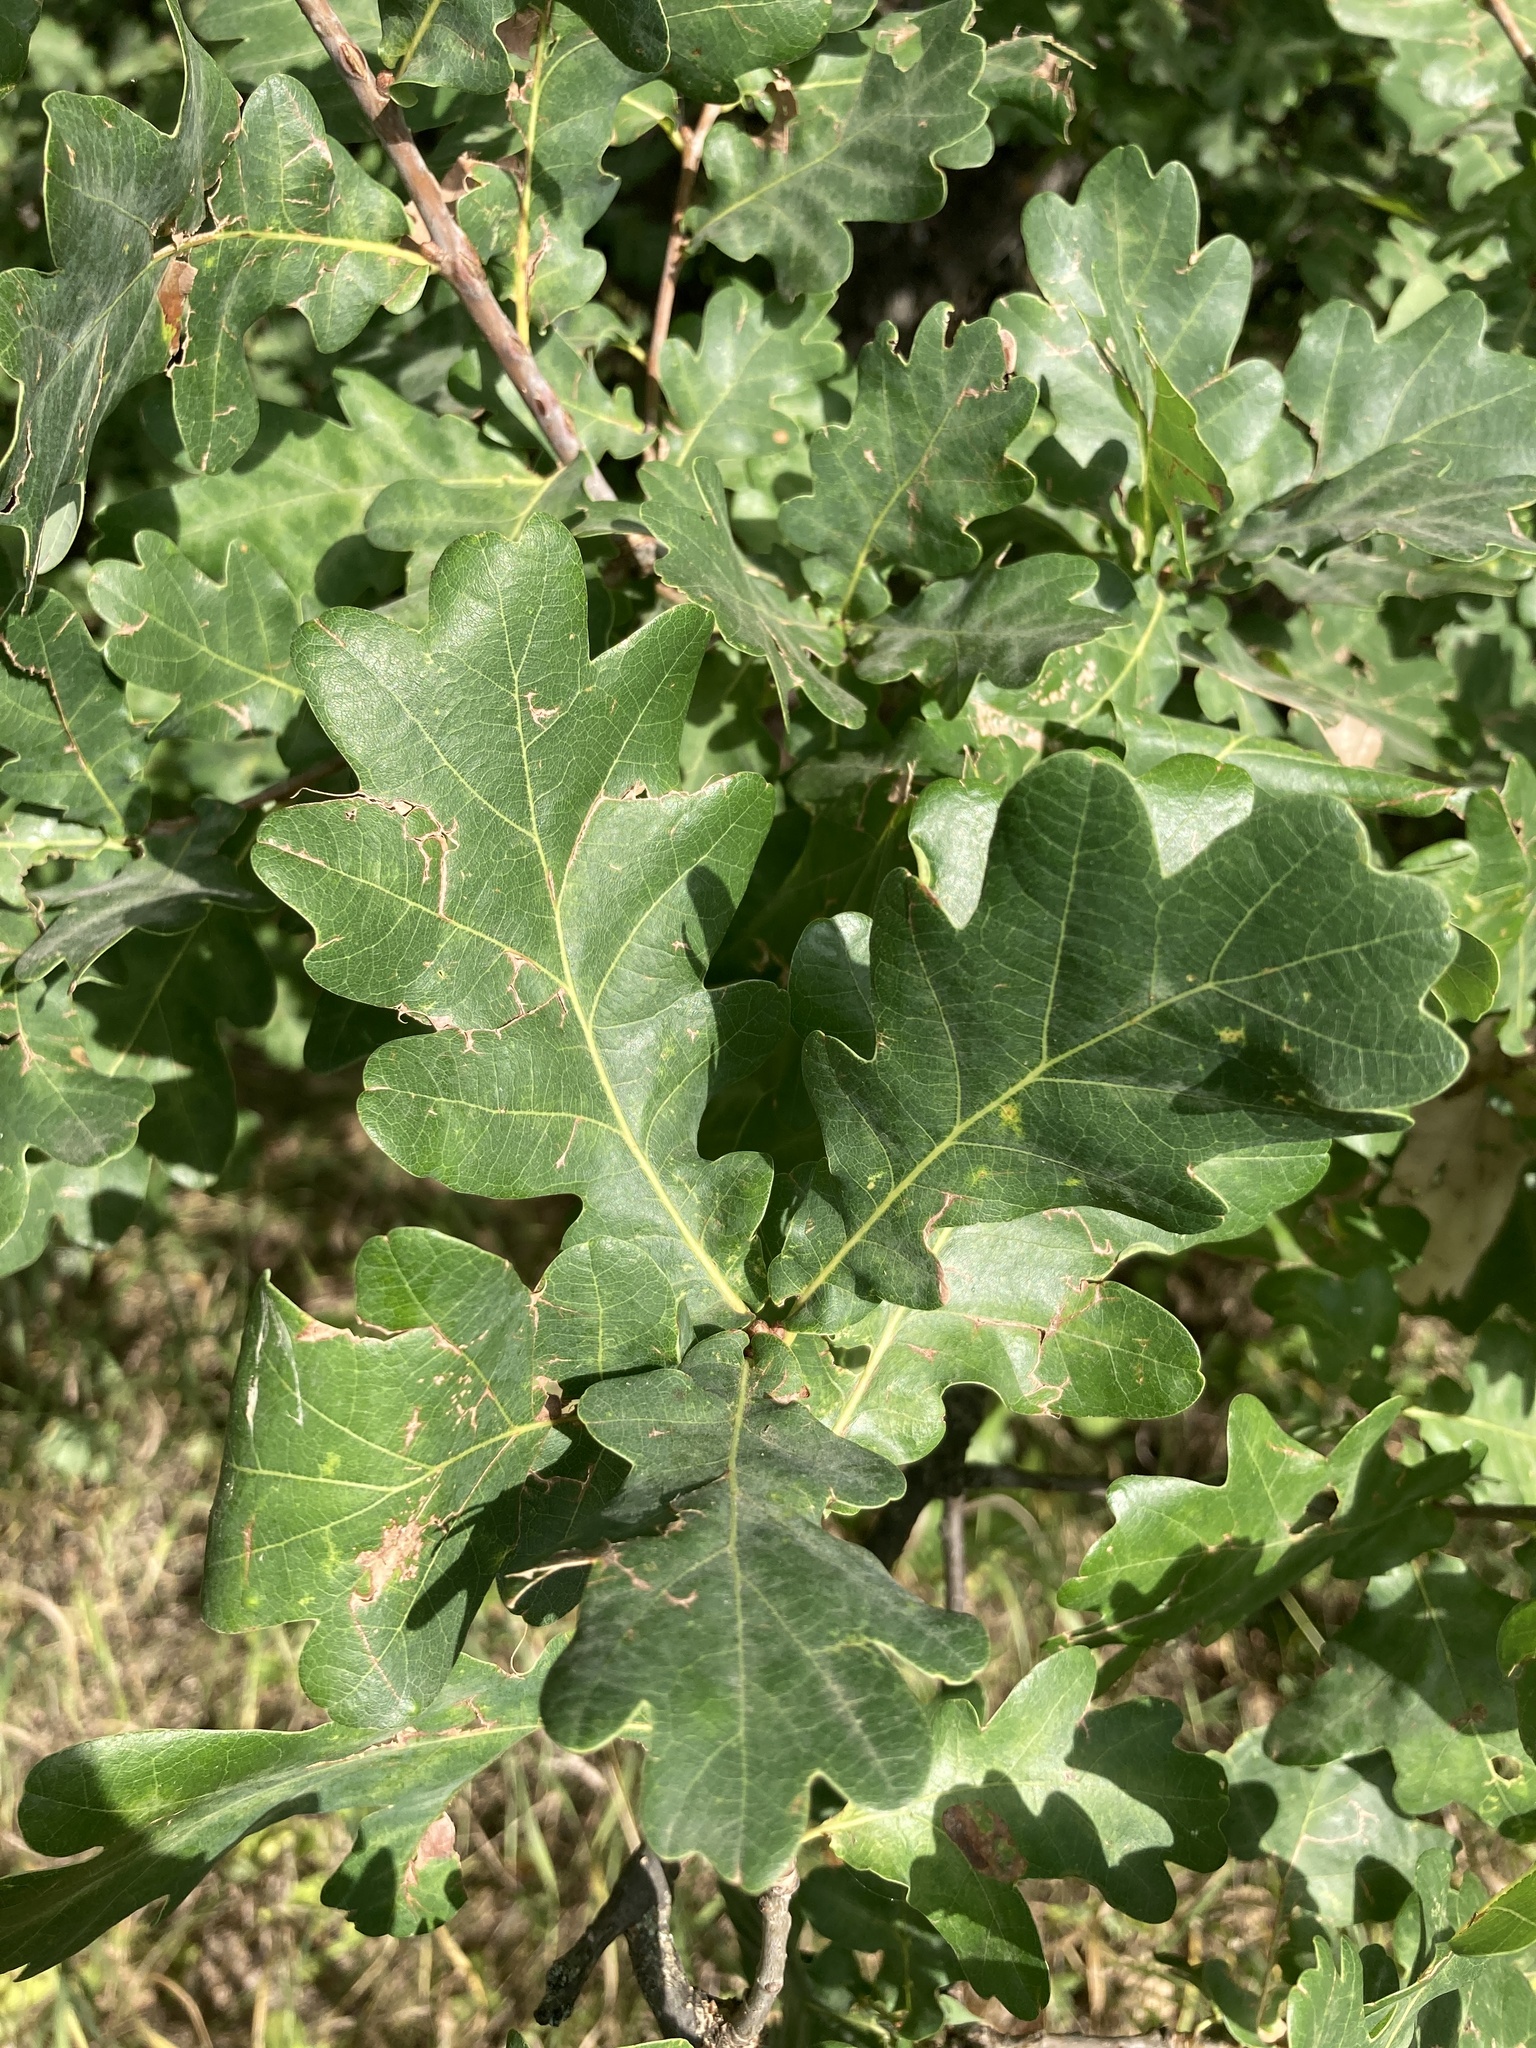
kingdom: Plantae
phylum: Tracheophyta
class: Magnoliopsida
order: Fagales
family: Fagaceae
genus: Quercus
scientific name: Quercus robur
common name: Pedunculate oak
